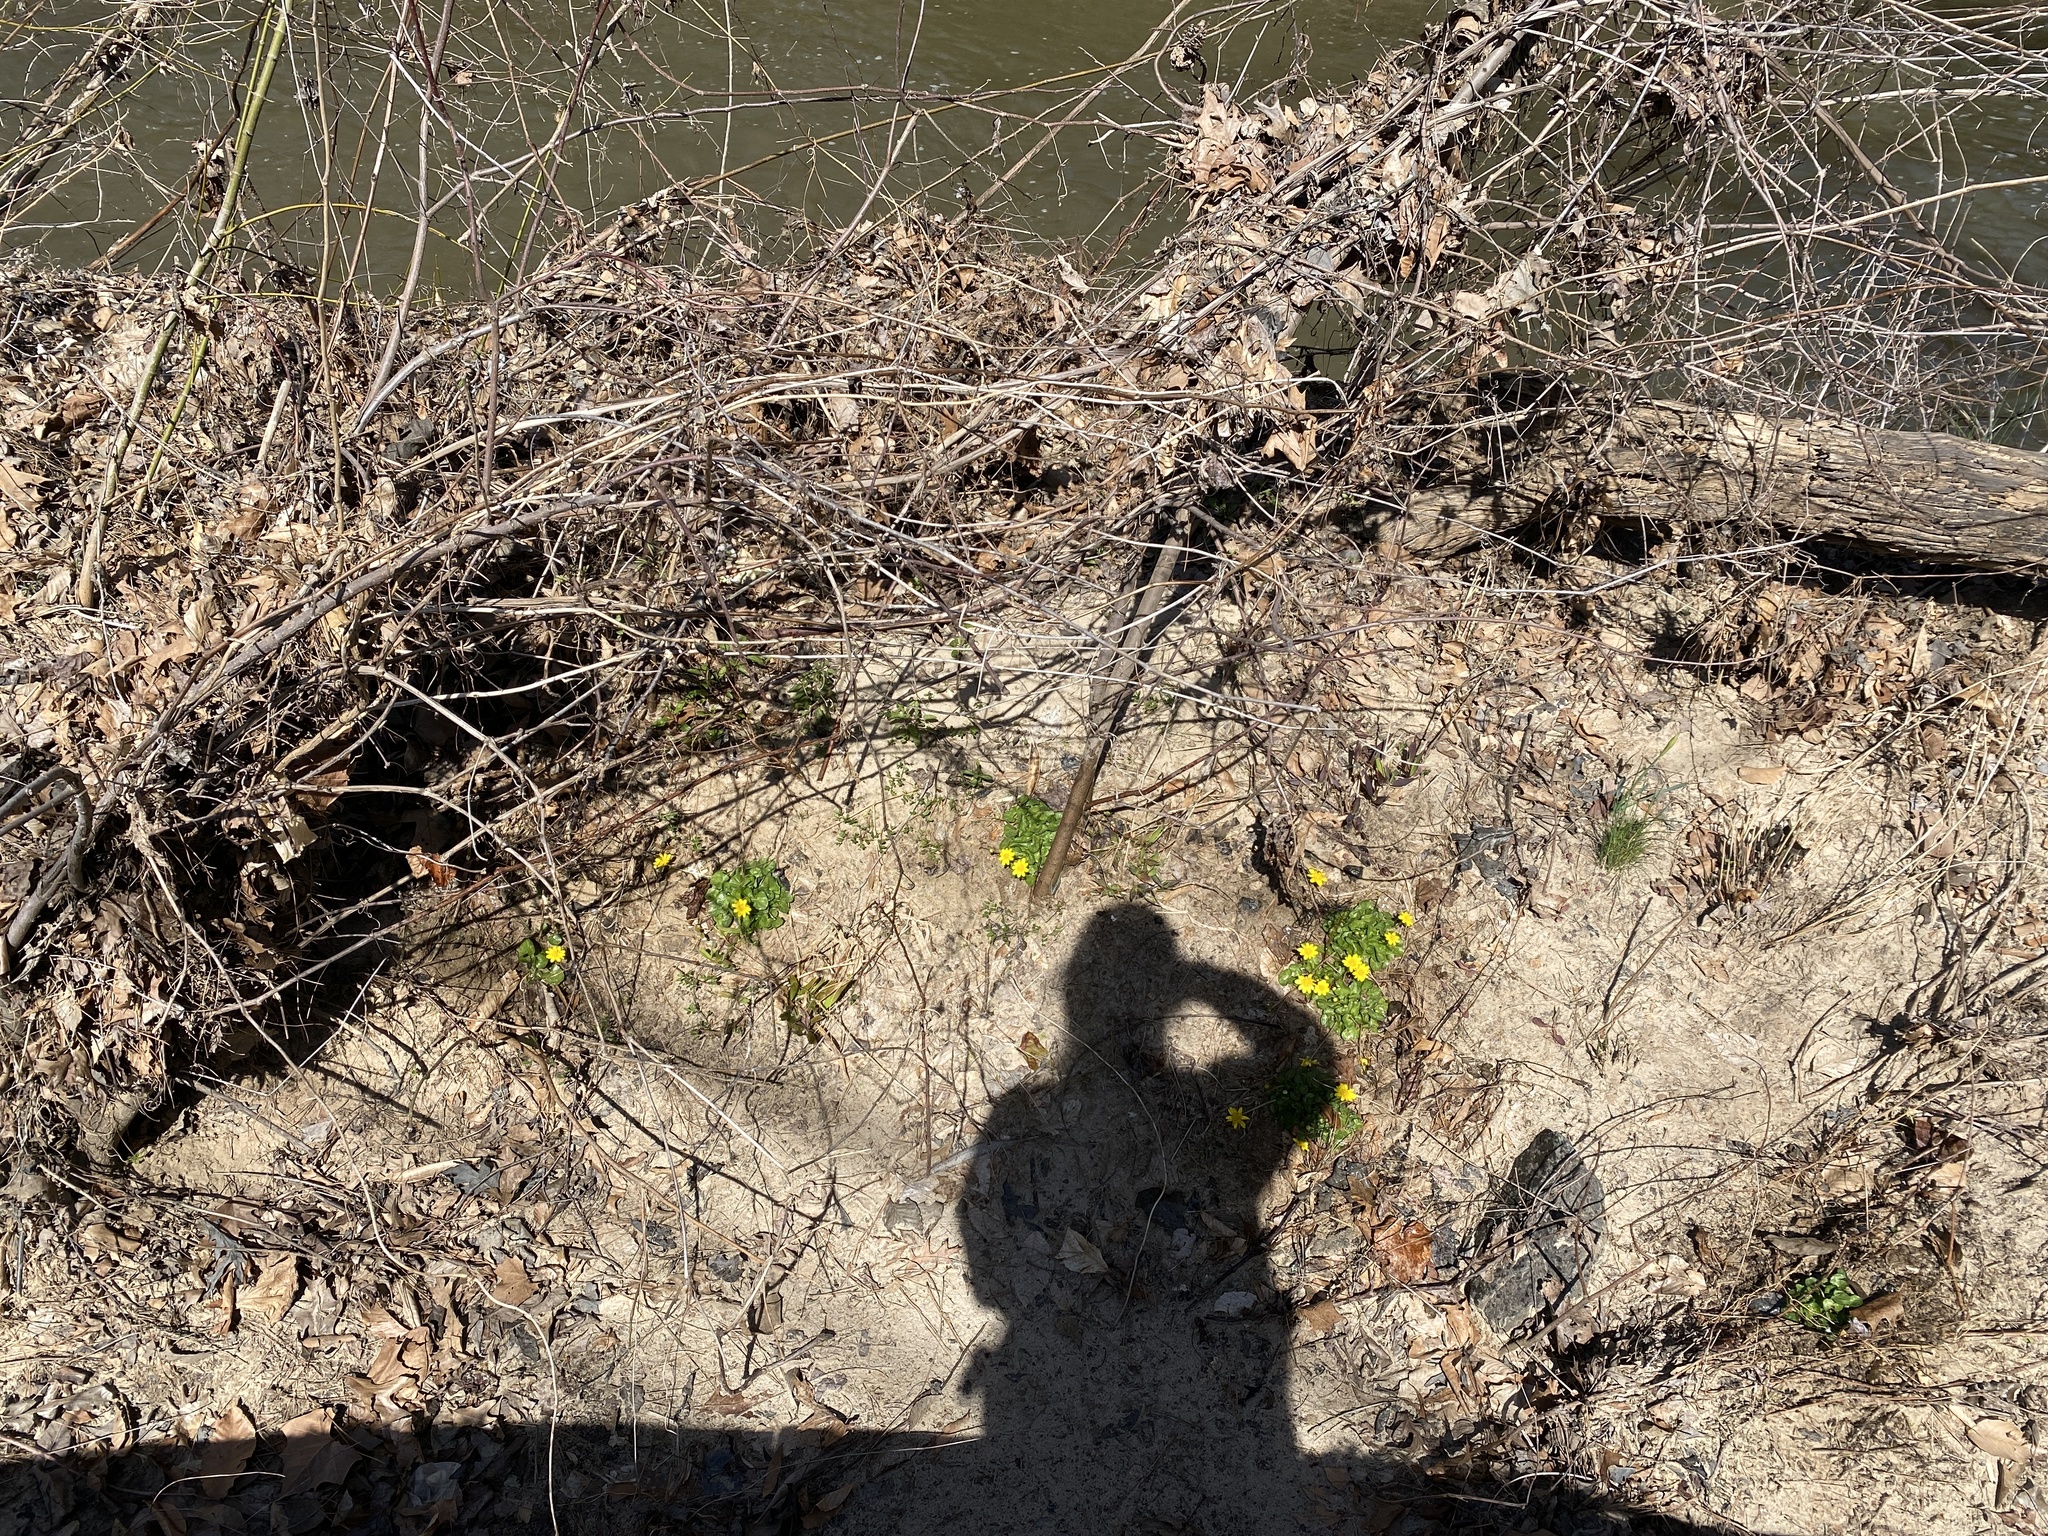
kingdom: Plantae
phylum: Tracheophyta
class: Magnoliopsida
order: Ranunculales
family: Ranunculaceae
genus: Ficaria
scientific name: Ficaria verna
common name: Lesser celandine
